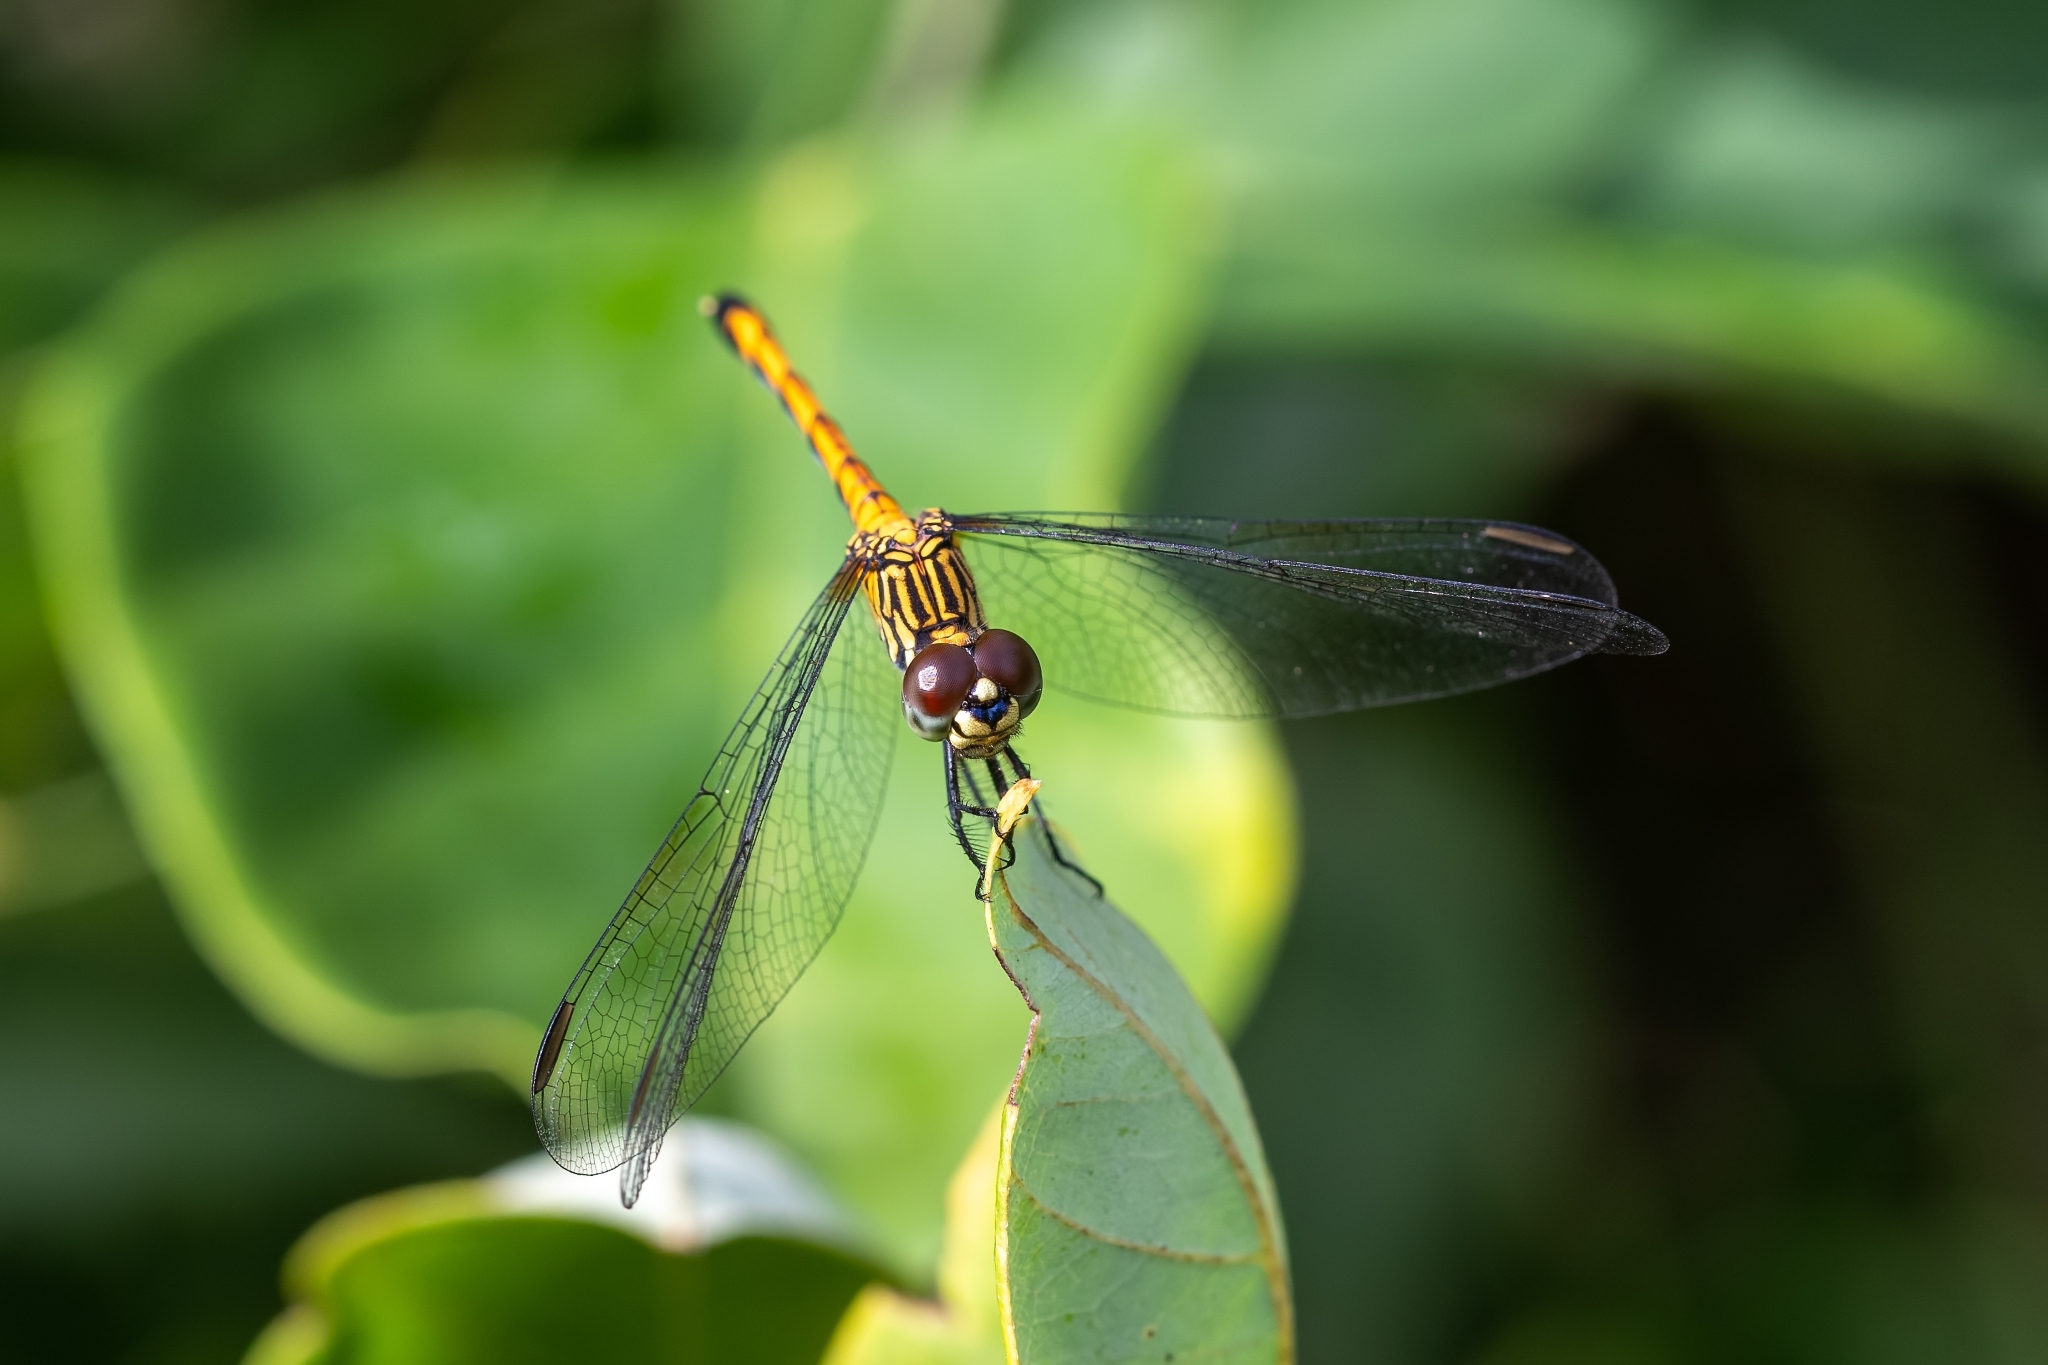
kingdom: Animalia
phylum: Arthropoda
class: Insecta
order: Odonata
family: Libellulidae
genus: Erythrodiplax
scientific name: Erythrodiplax berenice
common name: Seaside dragonlet
